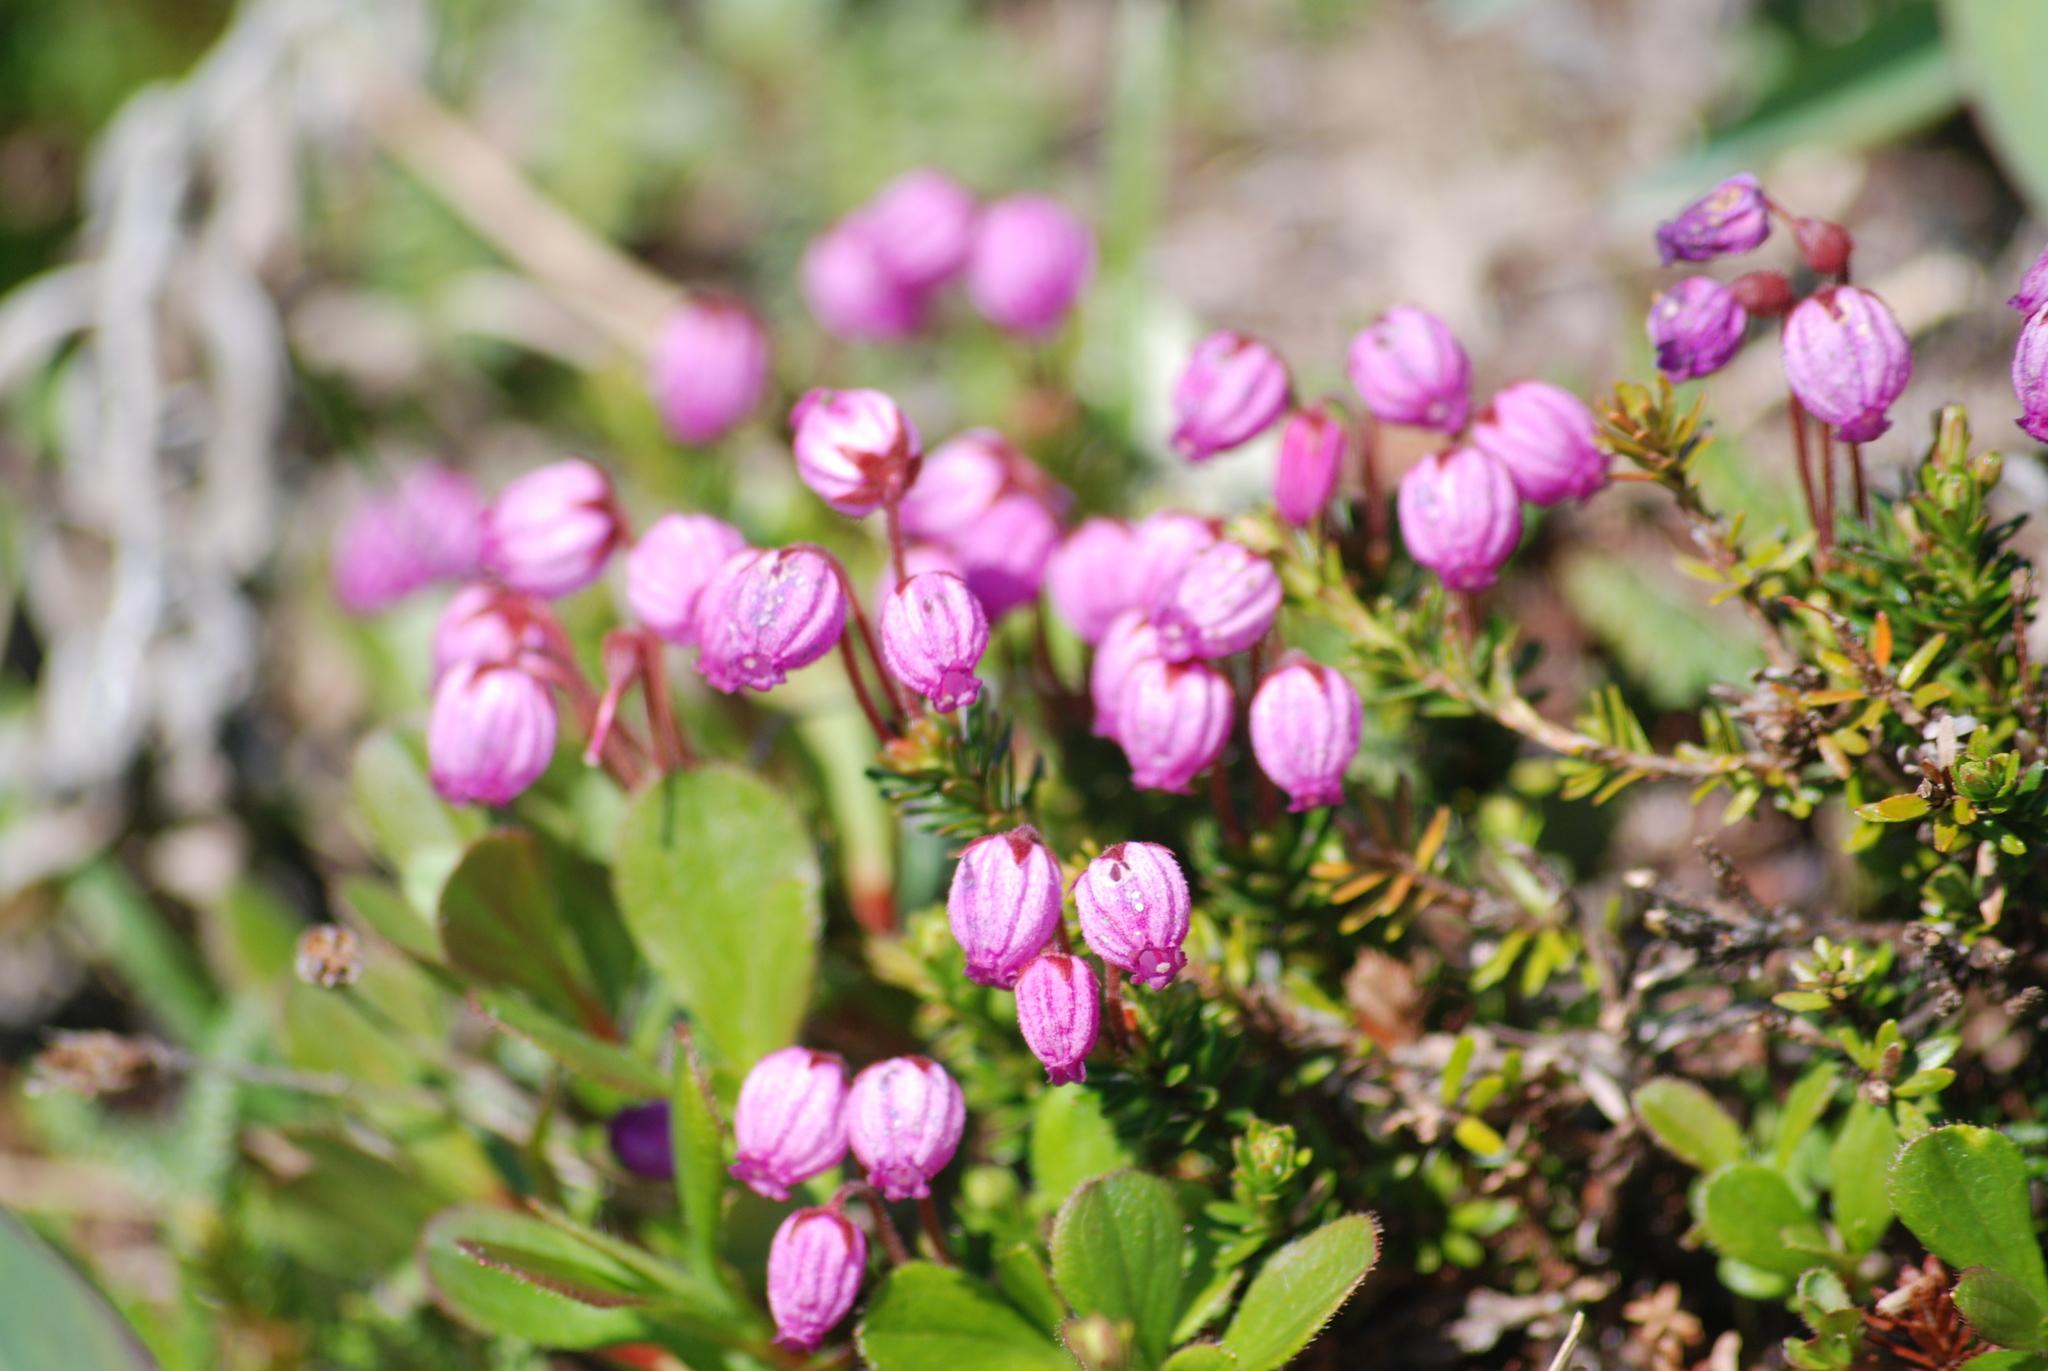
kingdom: Plantae
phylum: Tracheophyta
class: Magnoliopsida
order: Ericales
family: Ericaceae
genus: Phyllodoce
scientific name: Phyllodoce caerulea
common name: Blue heath
